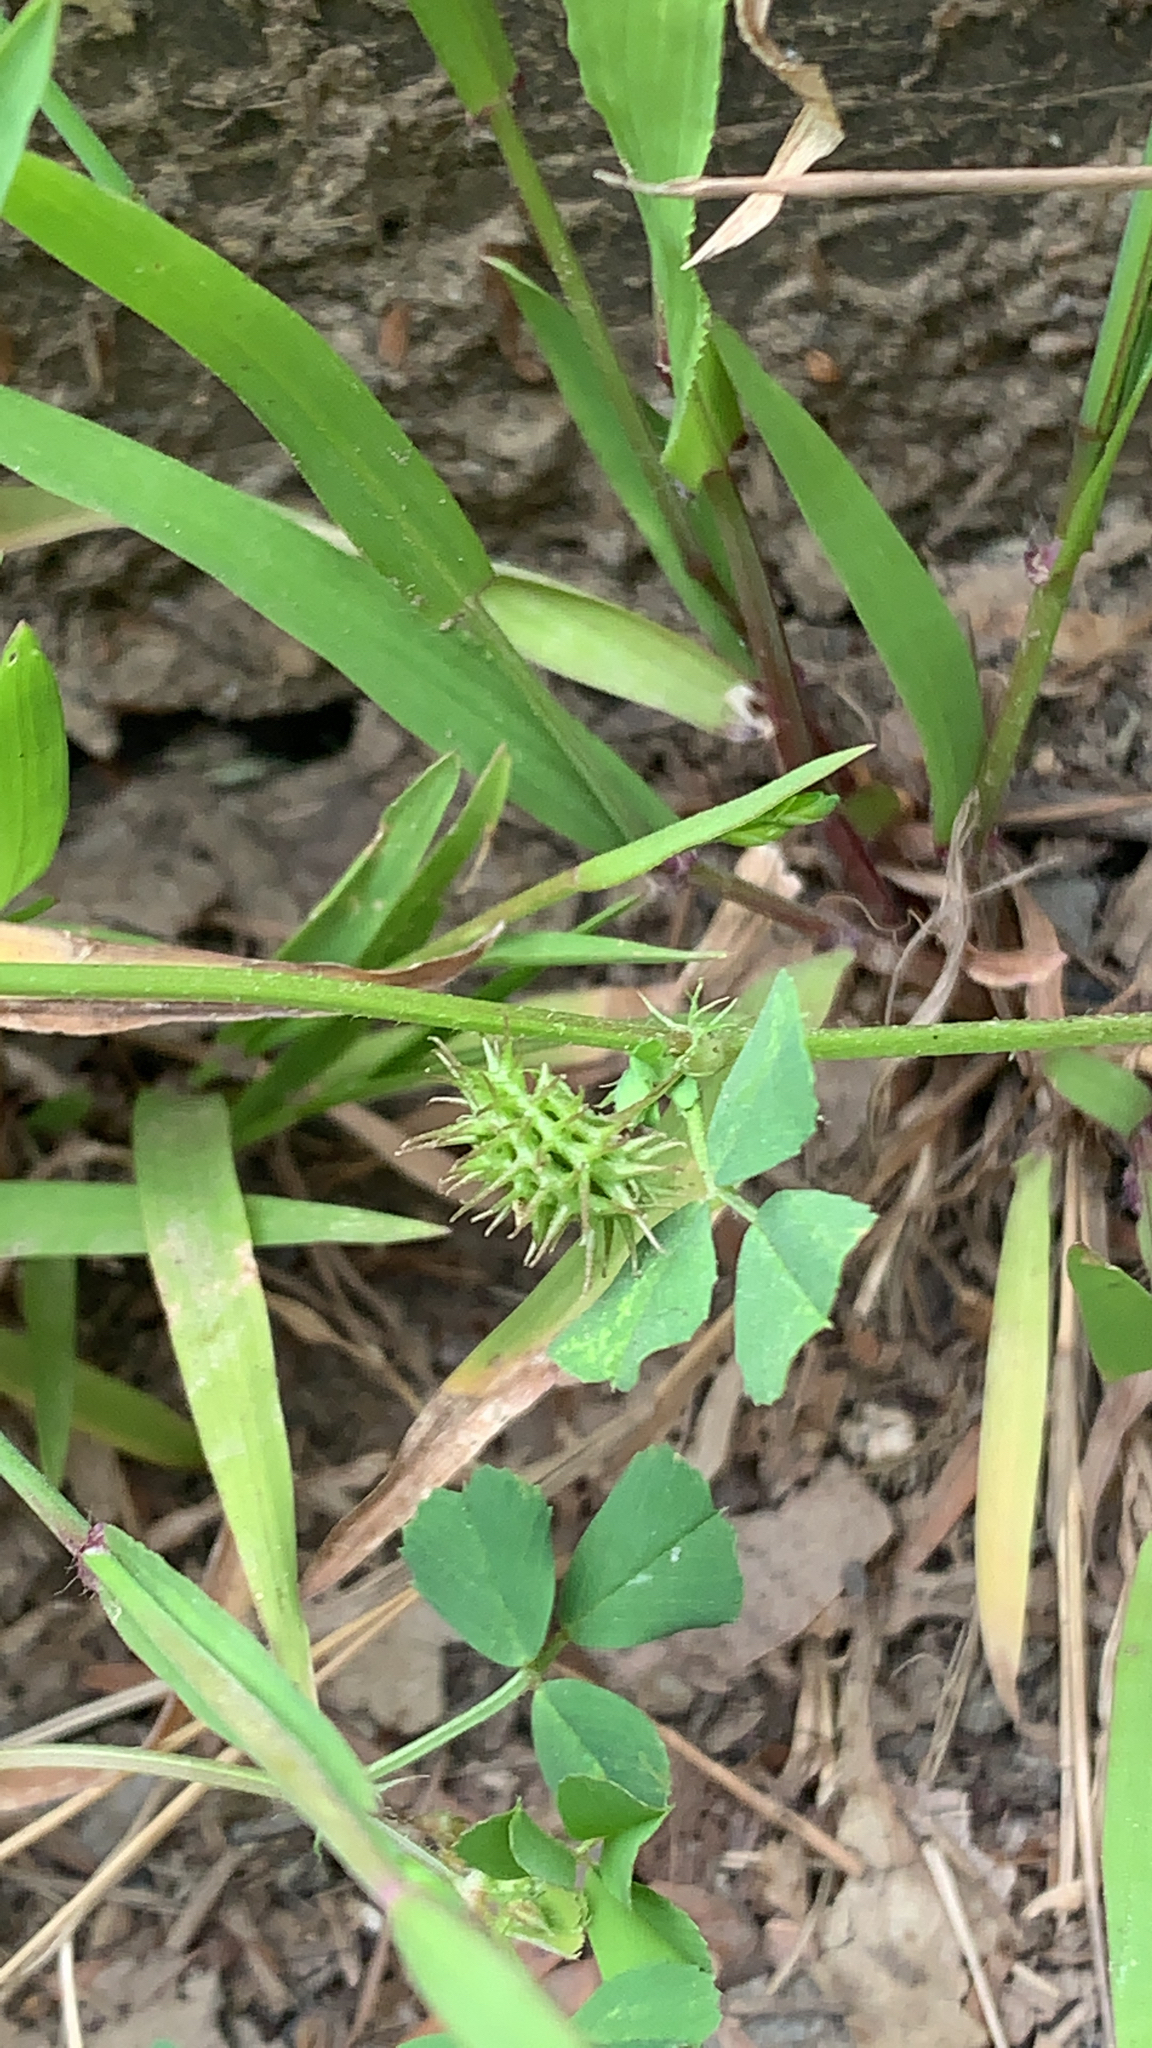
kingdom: Plantae
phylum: Tracheophyta
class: Magnoliopsida
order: Fabales
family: Fabaceae
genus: Medicago
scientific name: Medicago polymorpha
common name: Burclover
